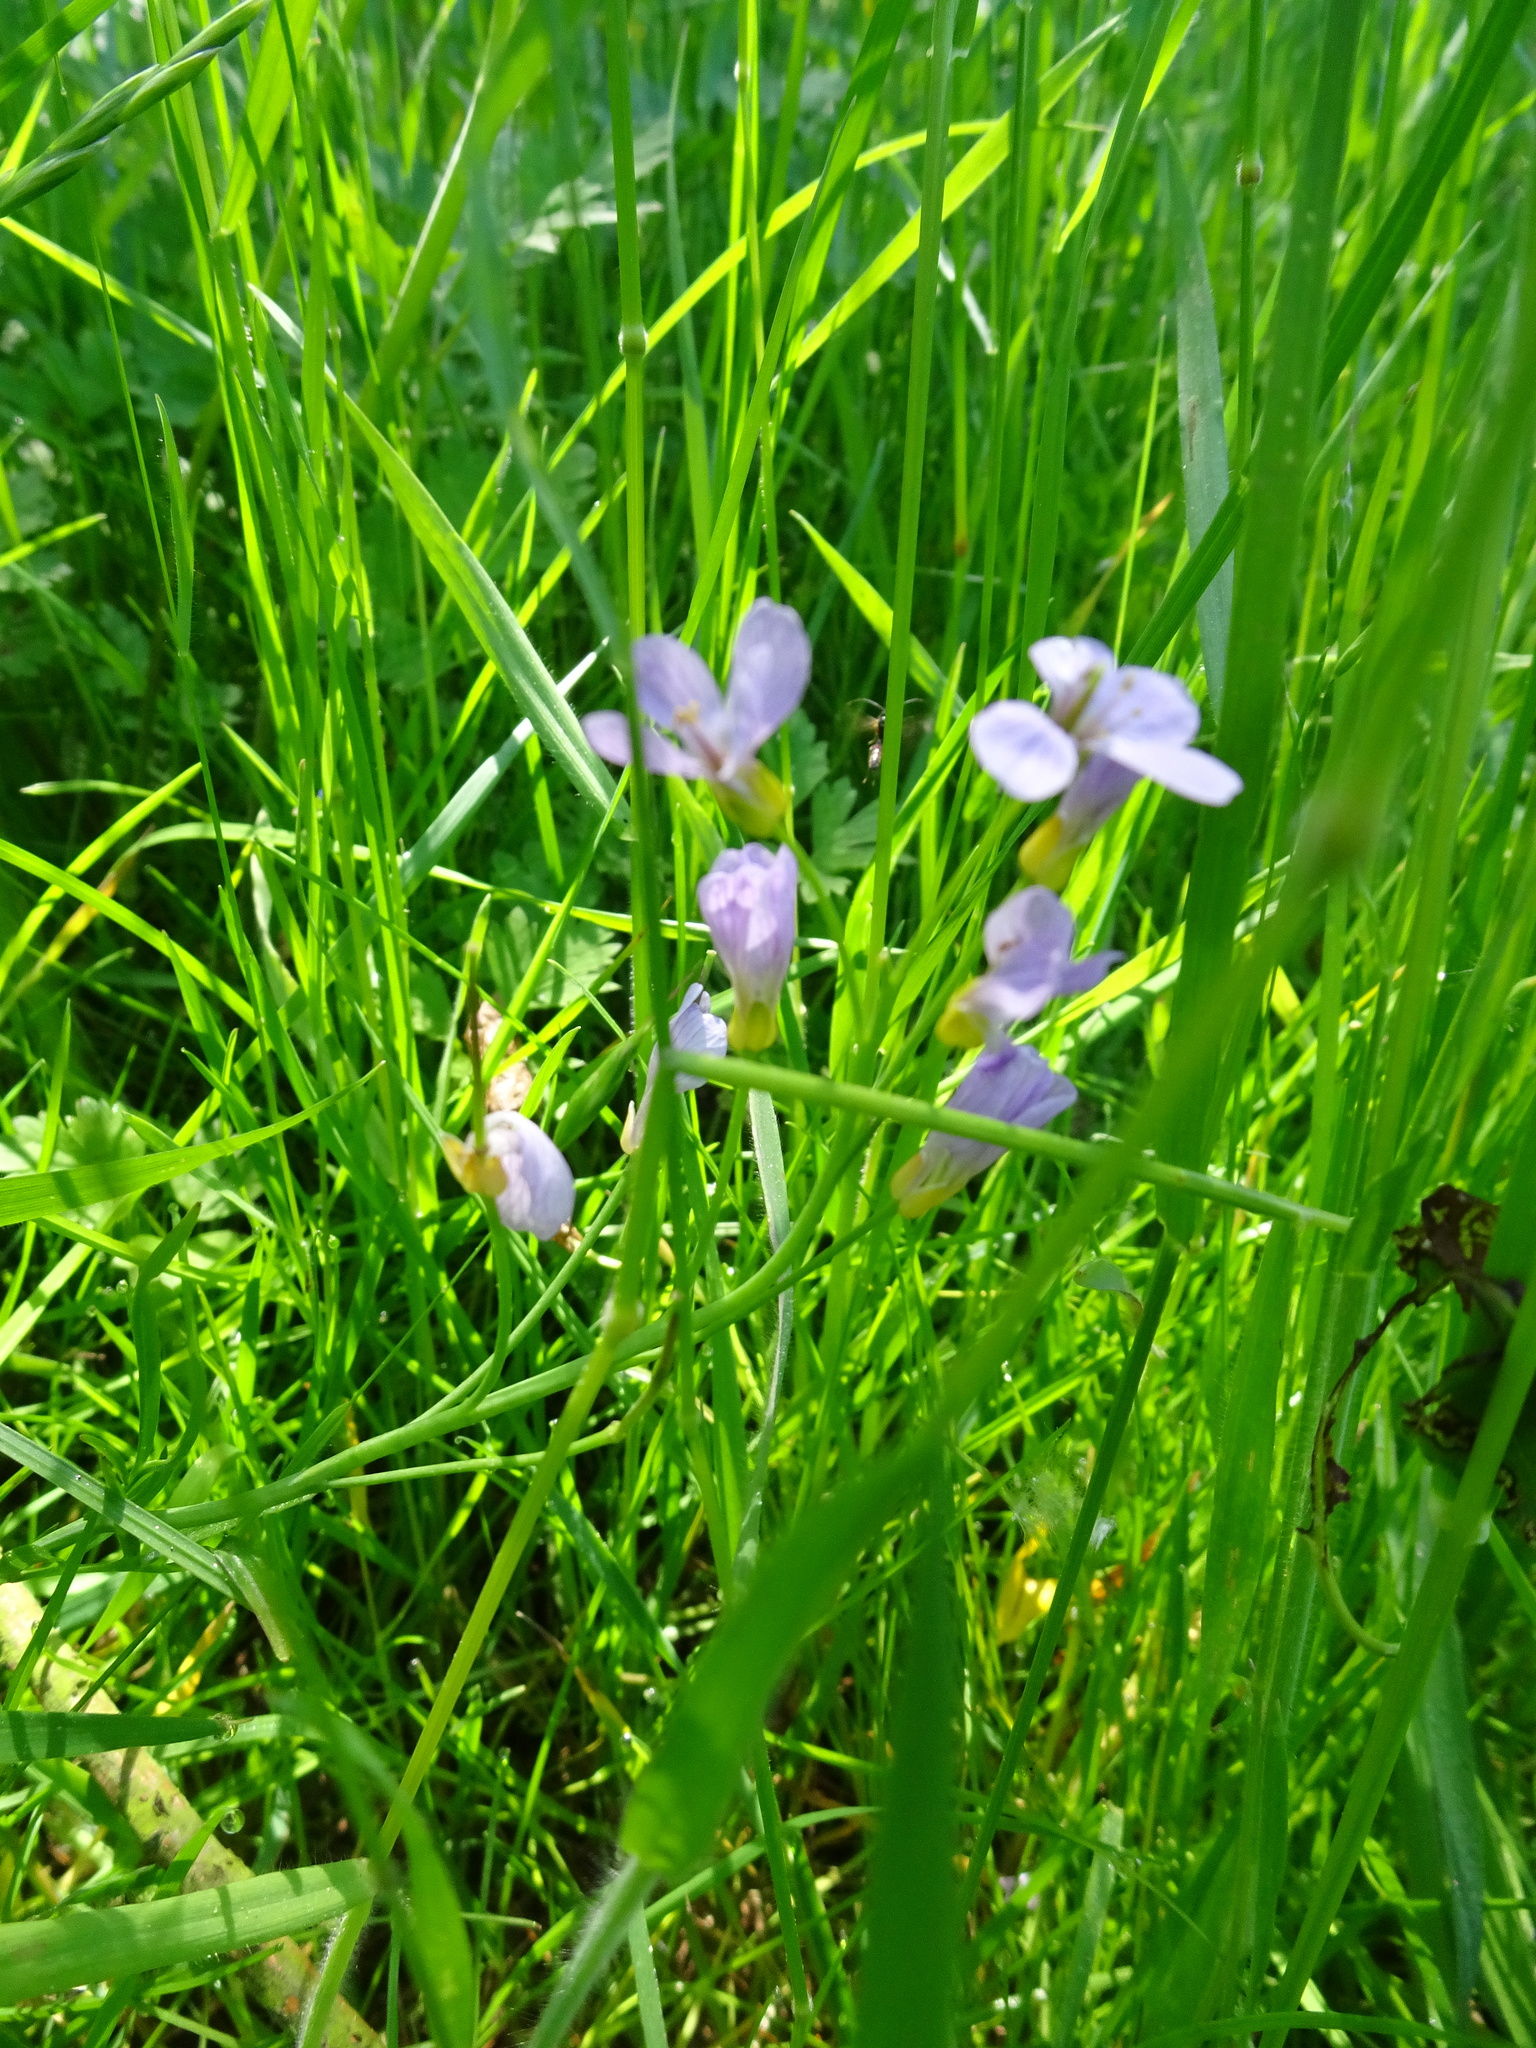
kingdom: Plantae
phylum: Tracheophyta
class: Magnoliopsida
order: Brassicales
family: Brassicaceae
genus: Cardamine
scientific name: Cardamine pratensis
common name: Cuckoo flower
